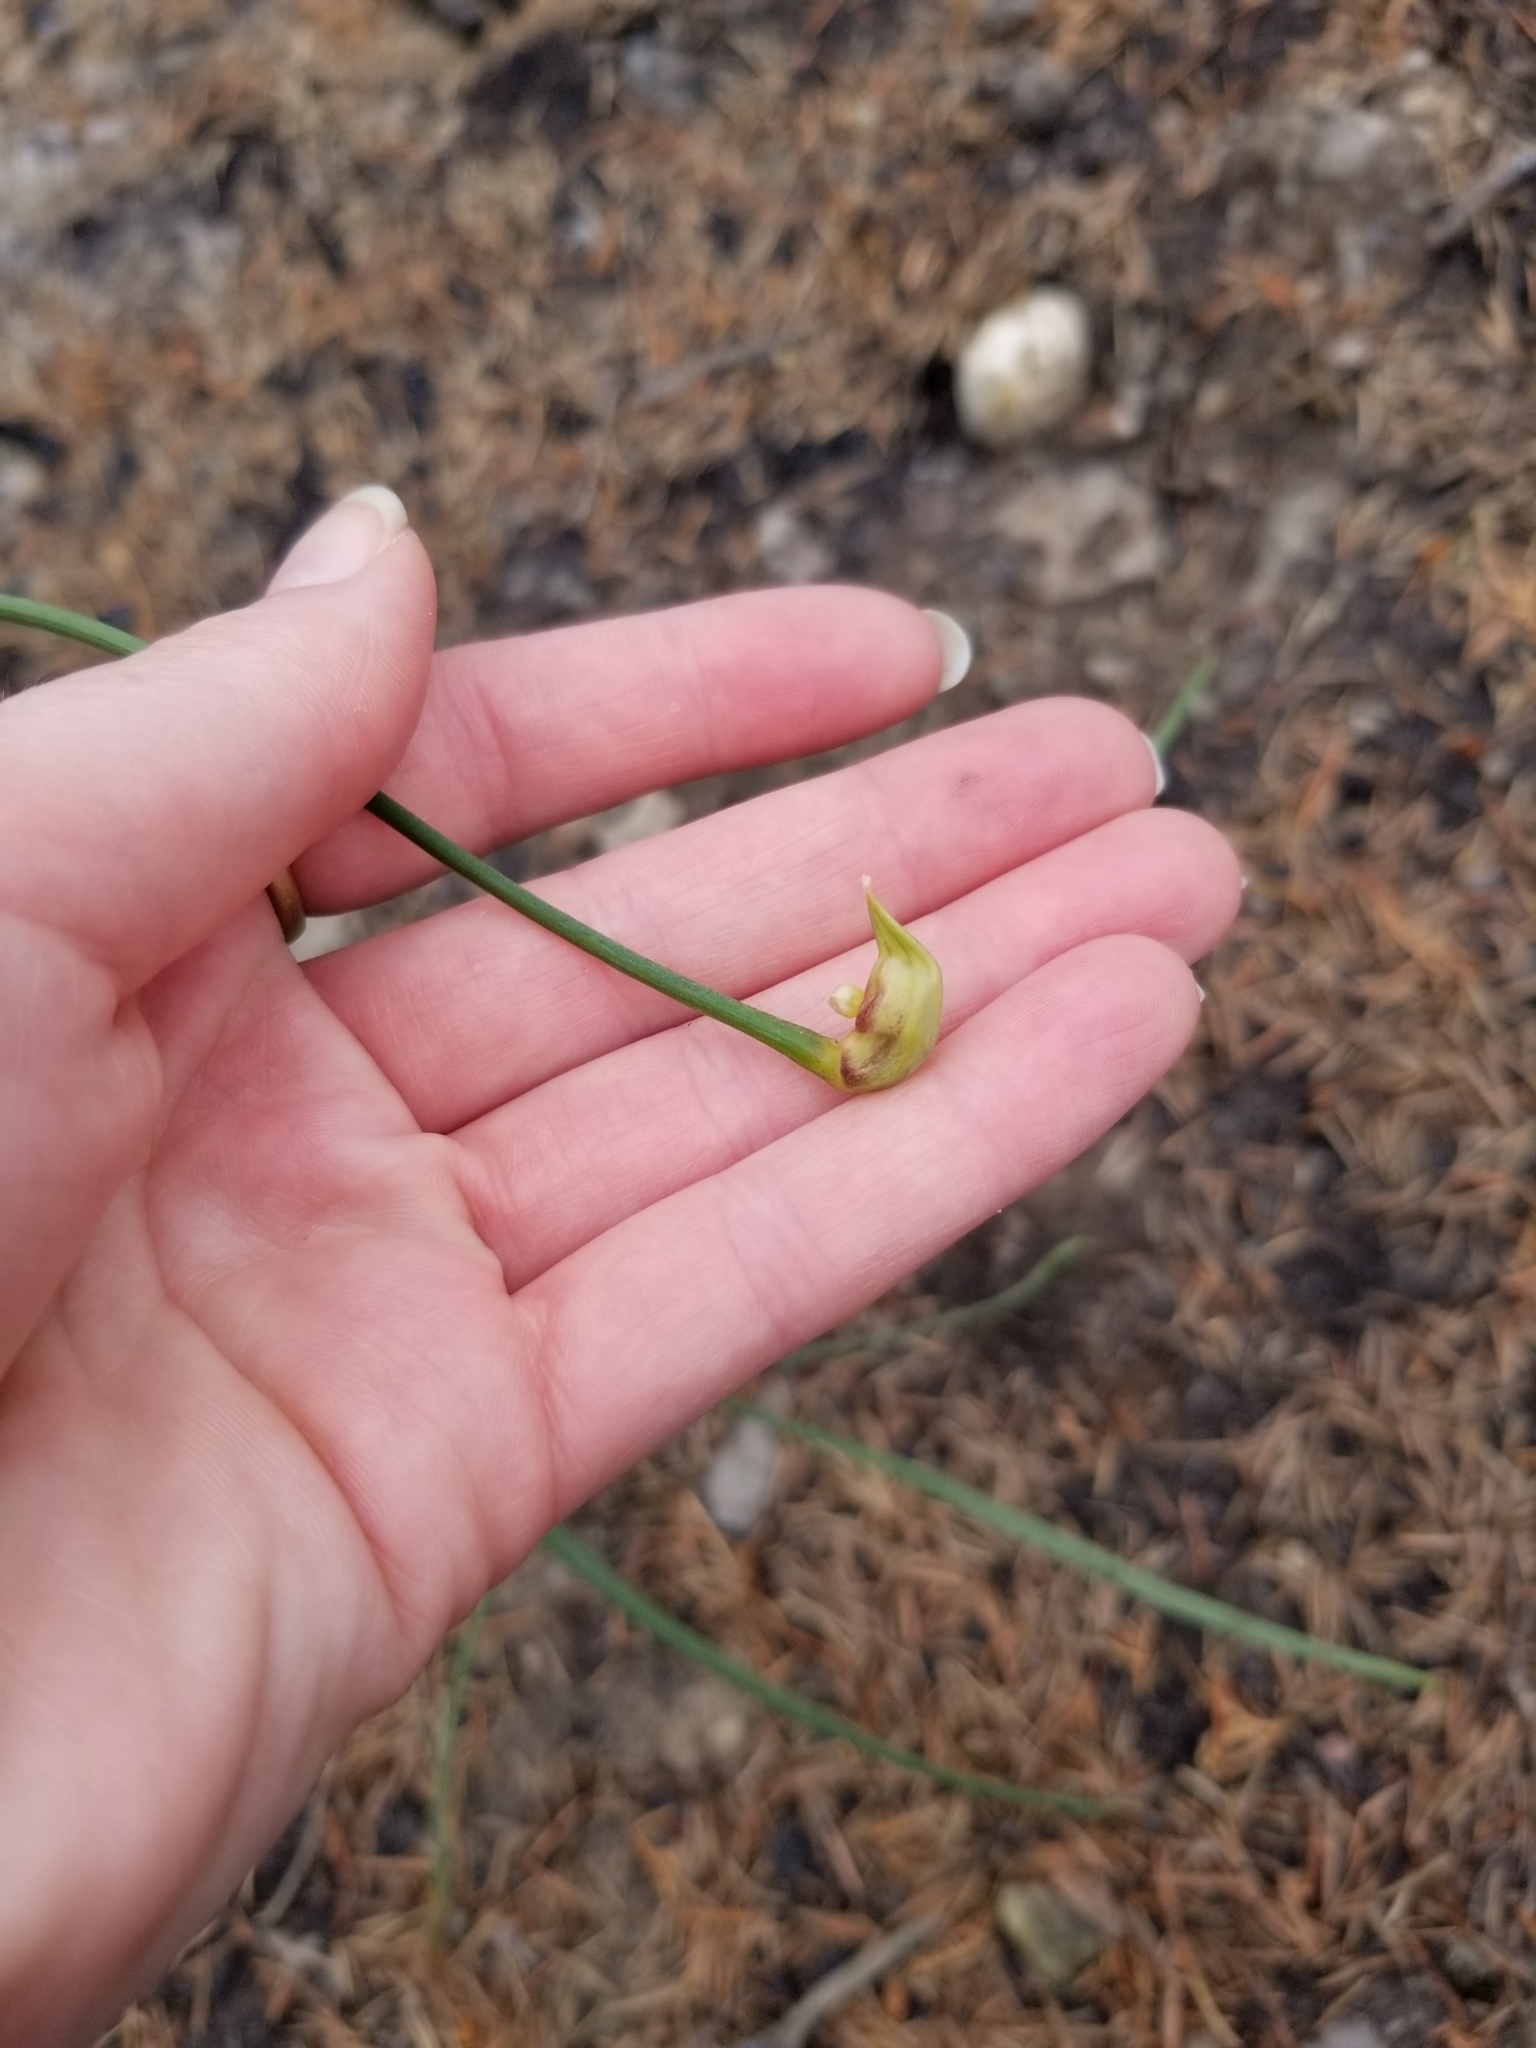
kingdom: Plantae
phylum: Tracheophyta
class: Liliopsida
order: Asparagales
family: Amaryllidaceae
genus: Allium
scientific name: Allium cernuum
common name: Nodding onion
